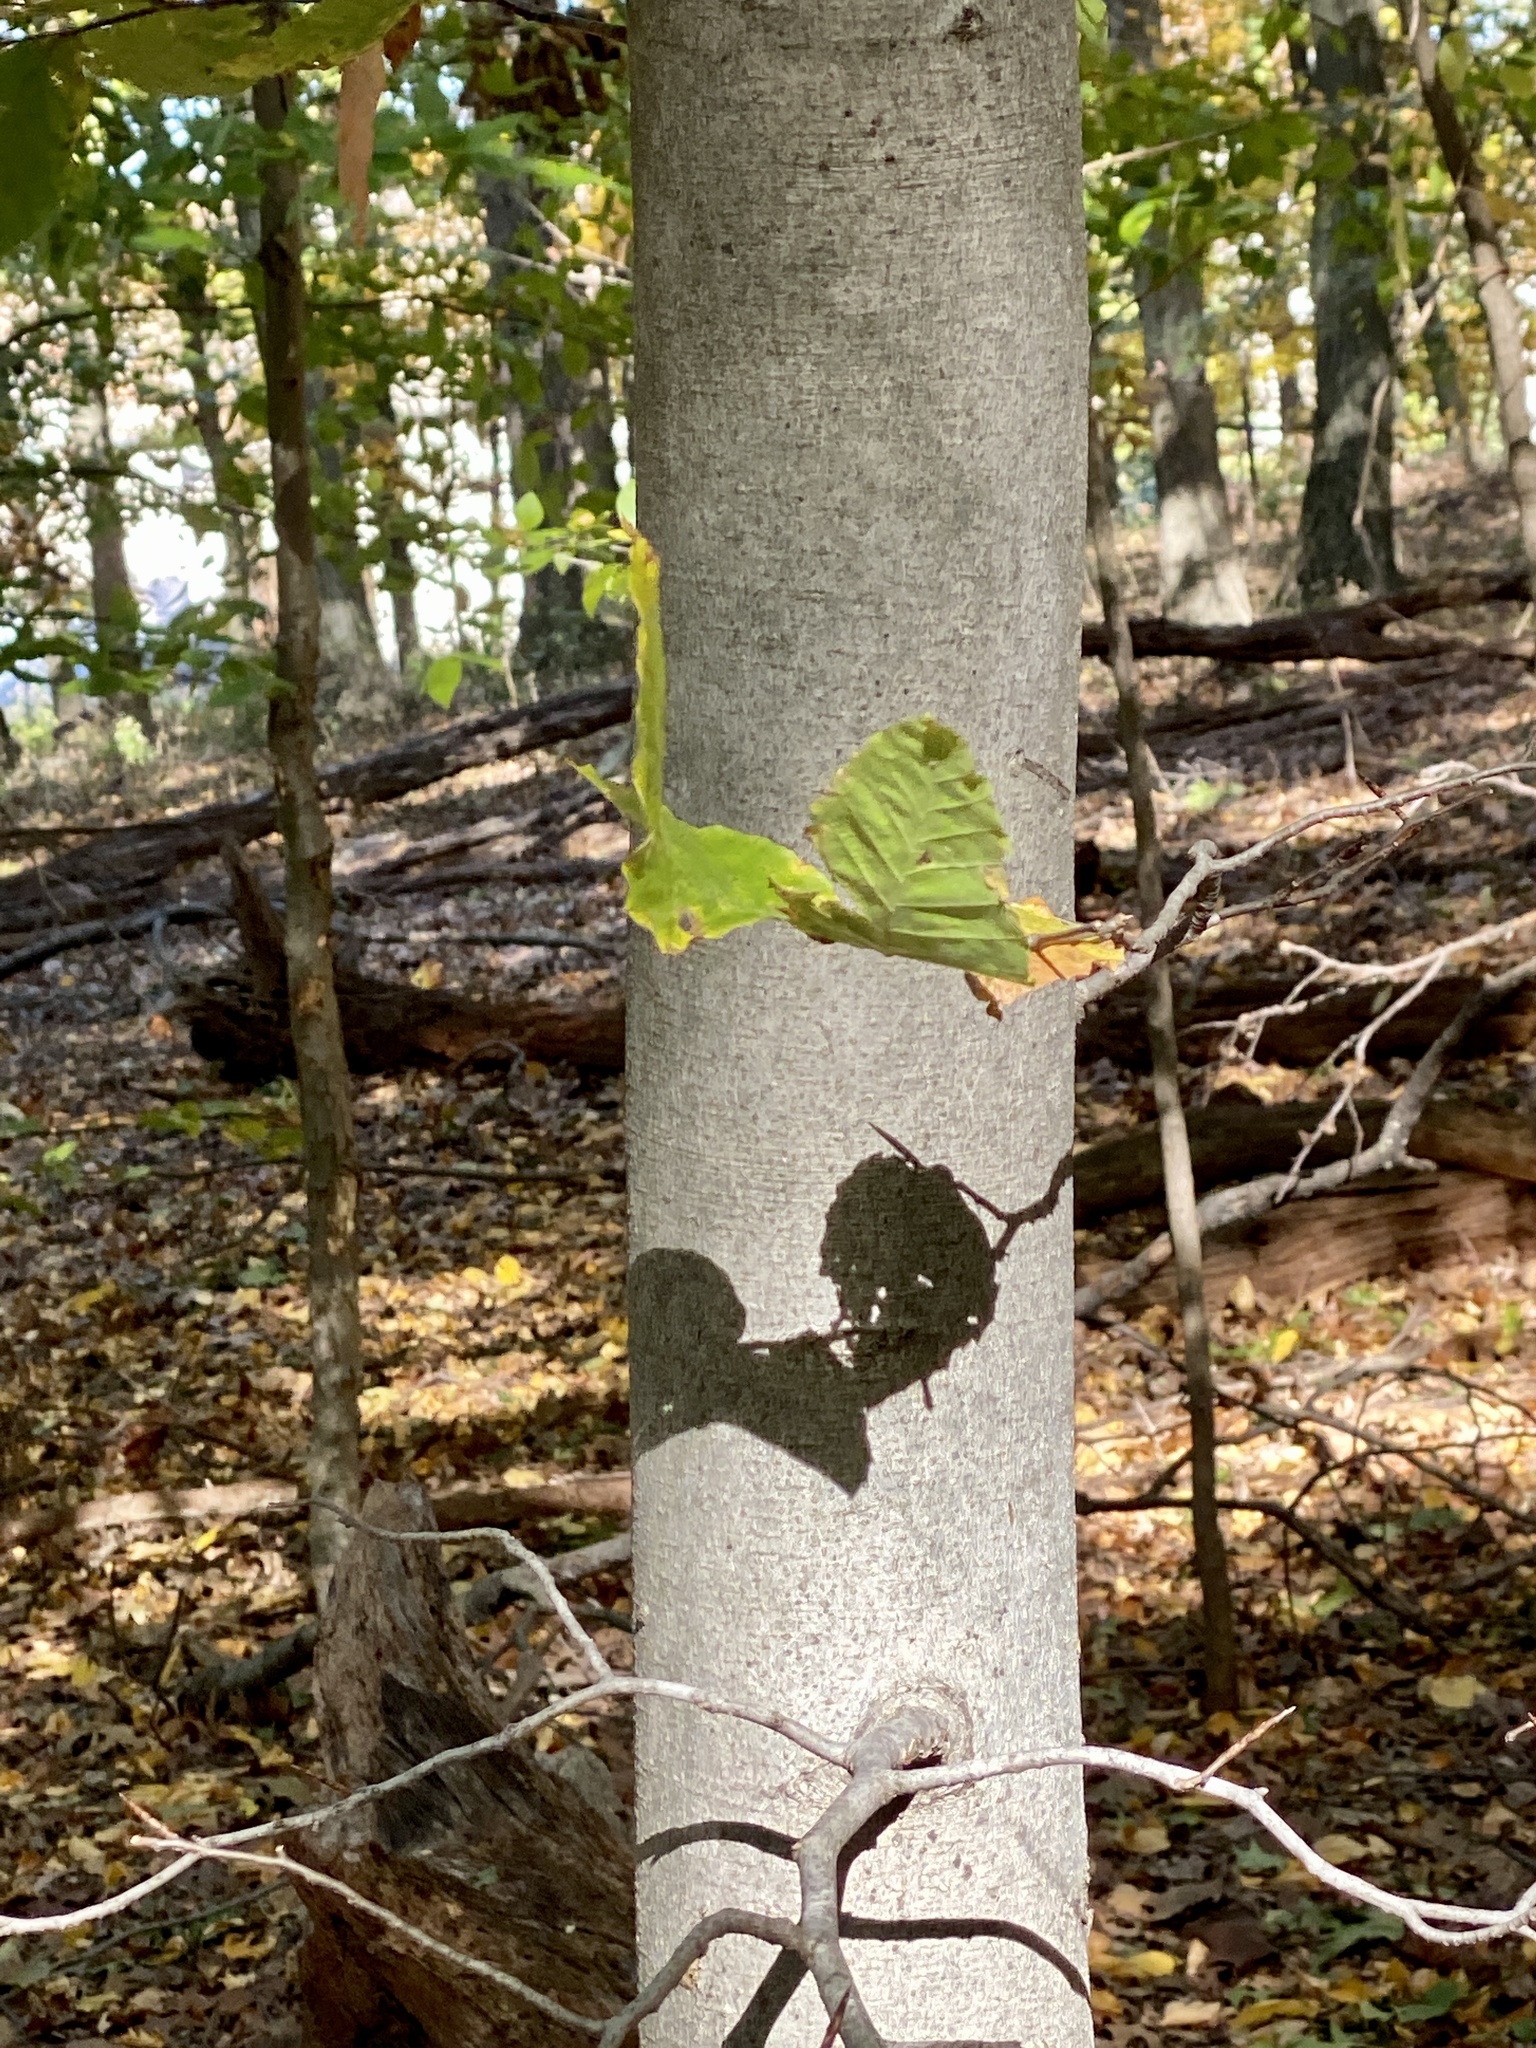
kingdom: Plantae
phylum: Tracheophyta
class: Magnoliopsida
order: Fagales
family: Fagaceae
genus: Fagus
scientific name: Fagus grandifolia
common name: American beech
